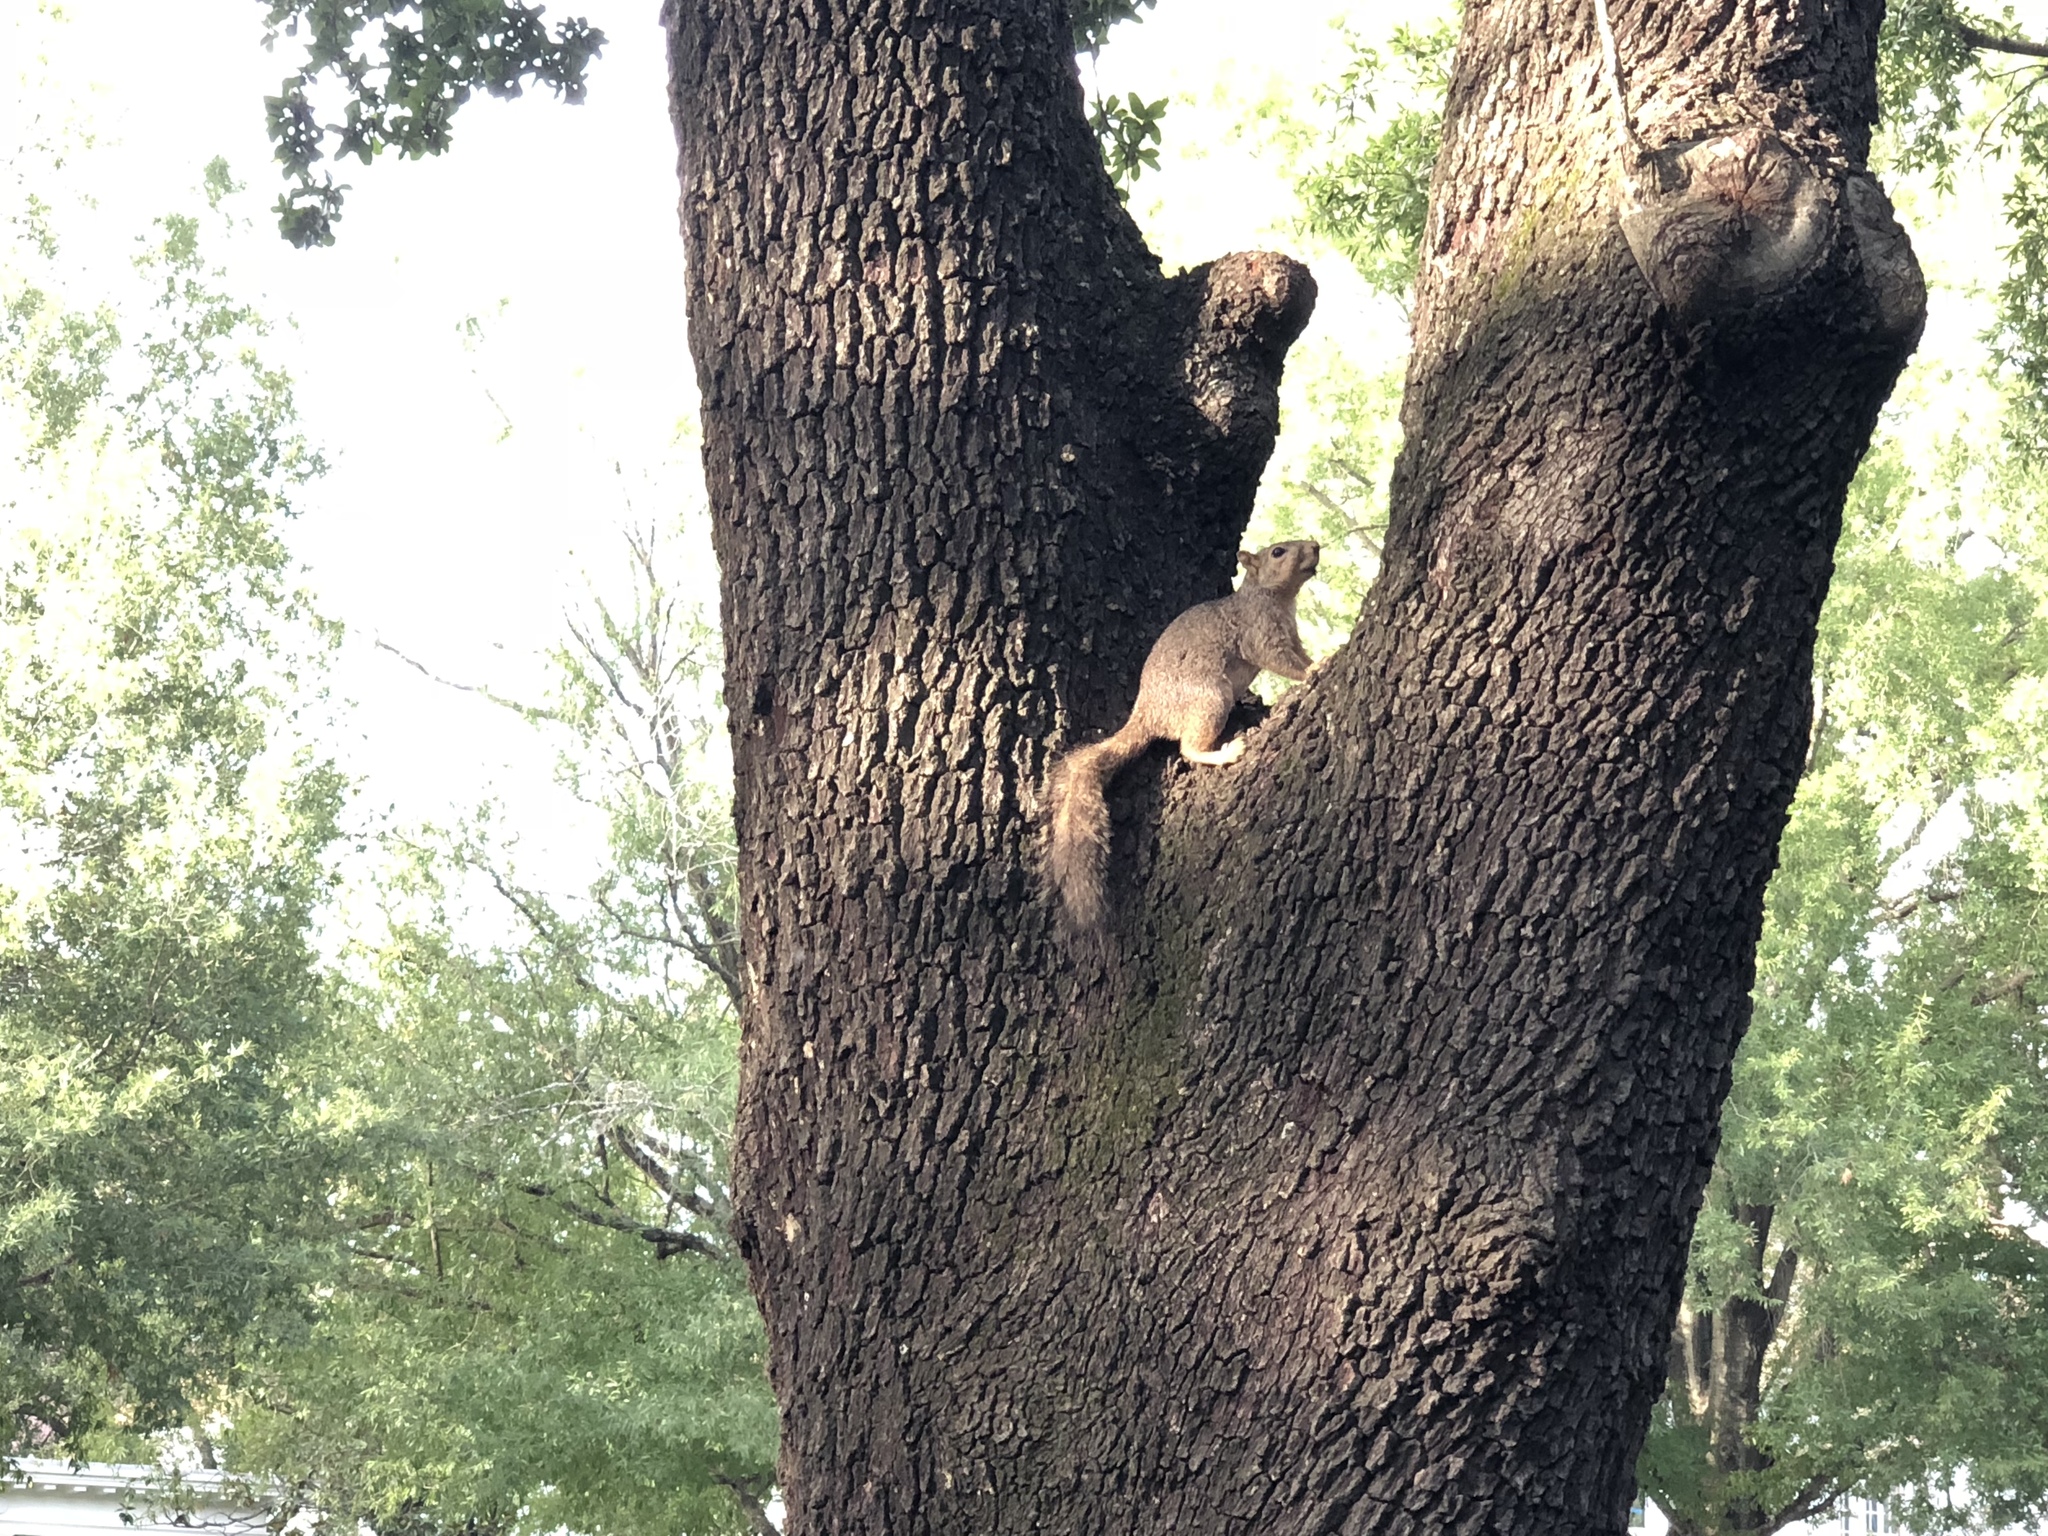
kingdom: Animalia
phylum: Chordata
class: Mammalia
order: Rodentia
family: Sciuridae
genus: Sciurus
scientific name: Sciurus niger
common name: Fox squirrel
